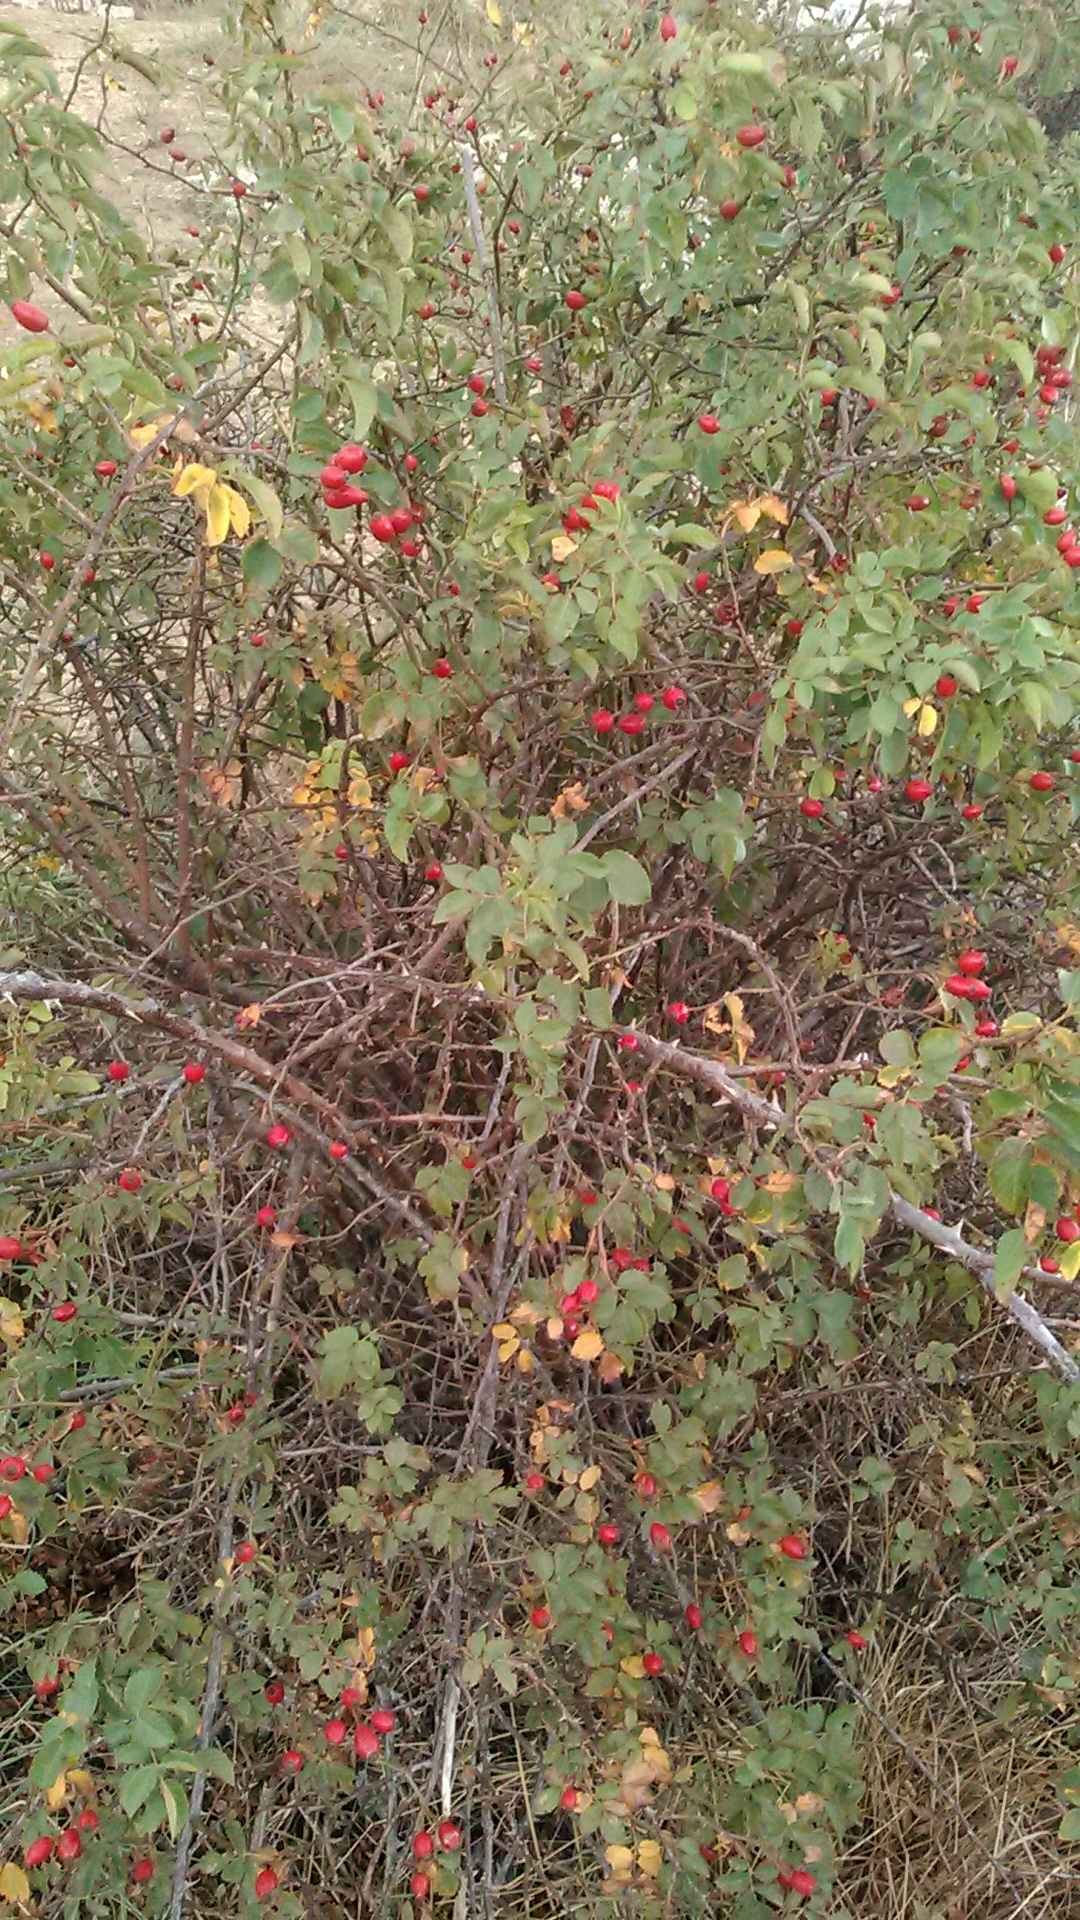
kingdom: Plantae
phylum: Tracheophyta
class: Magnoliopsida
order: Rosales
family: Rosaceae
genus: Rosa
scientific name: Rosa
